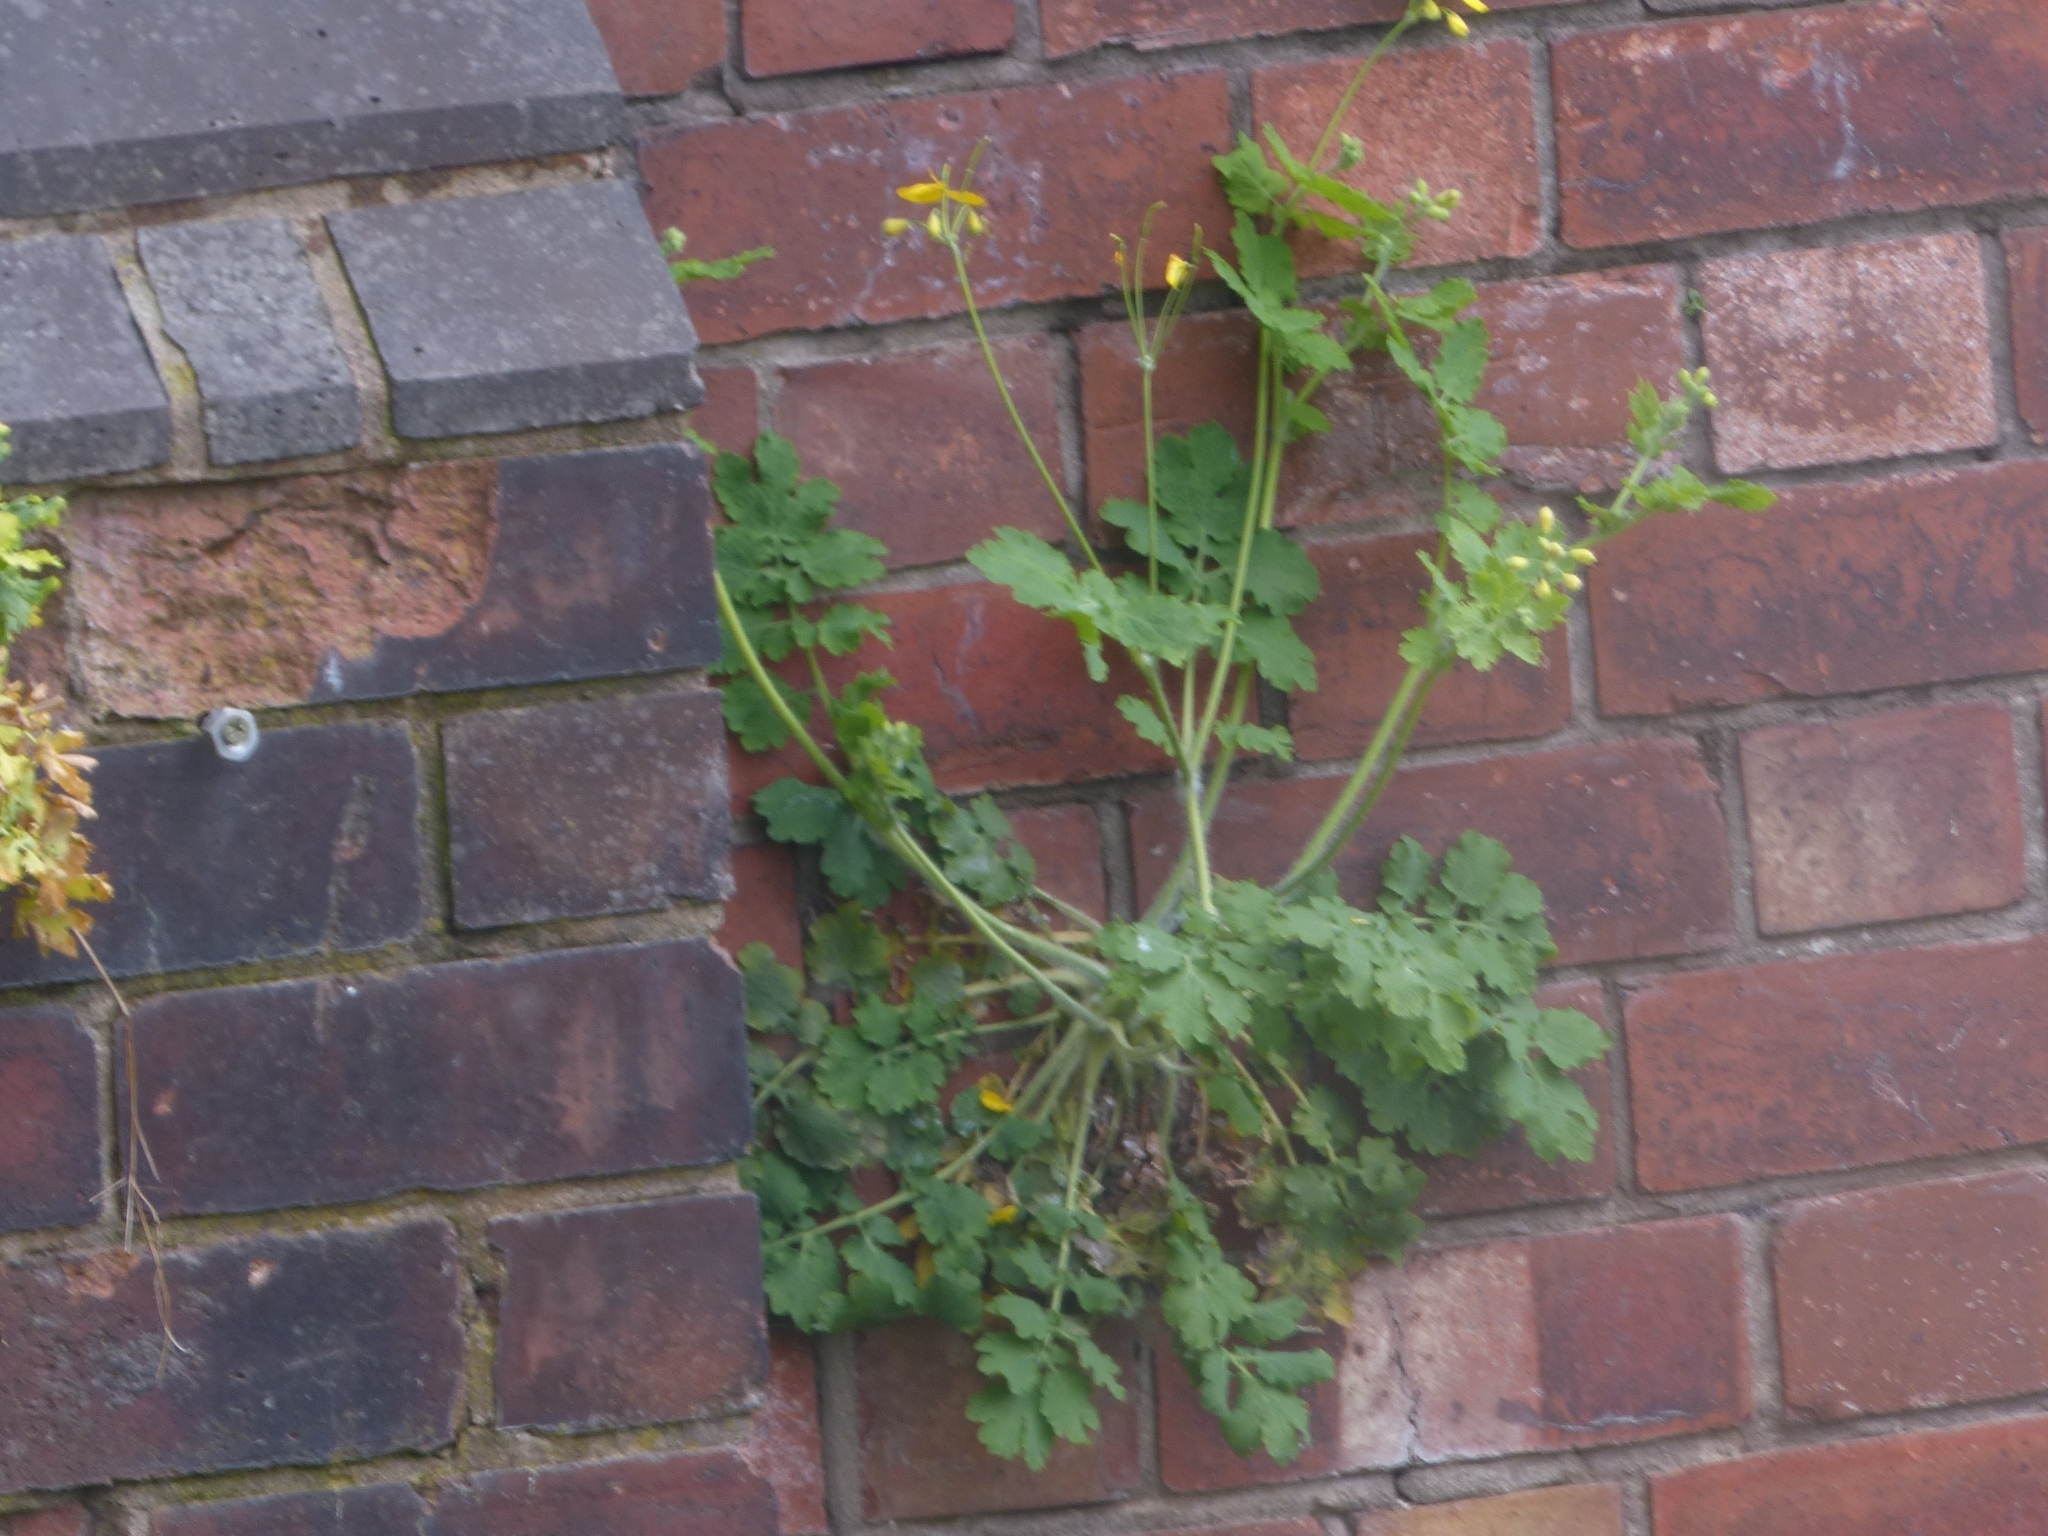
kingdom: Plantae
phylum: Tracheophyta
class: Magnoliopsida
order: Ranunculales
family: Papaveraceae
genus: Chelidonium
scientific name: Chelidonium majus
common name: Greater celandine
